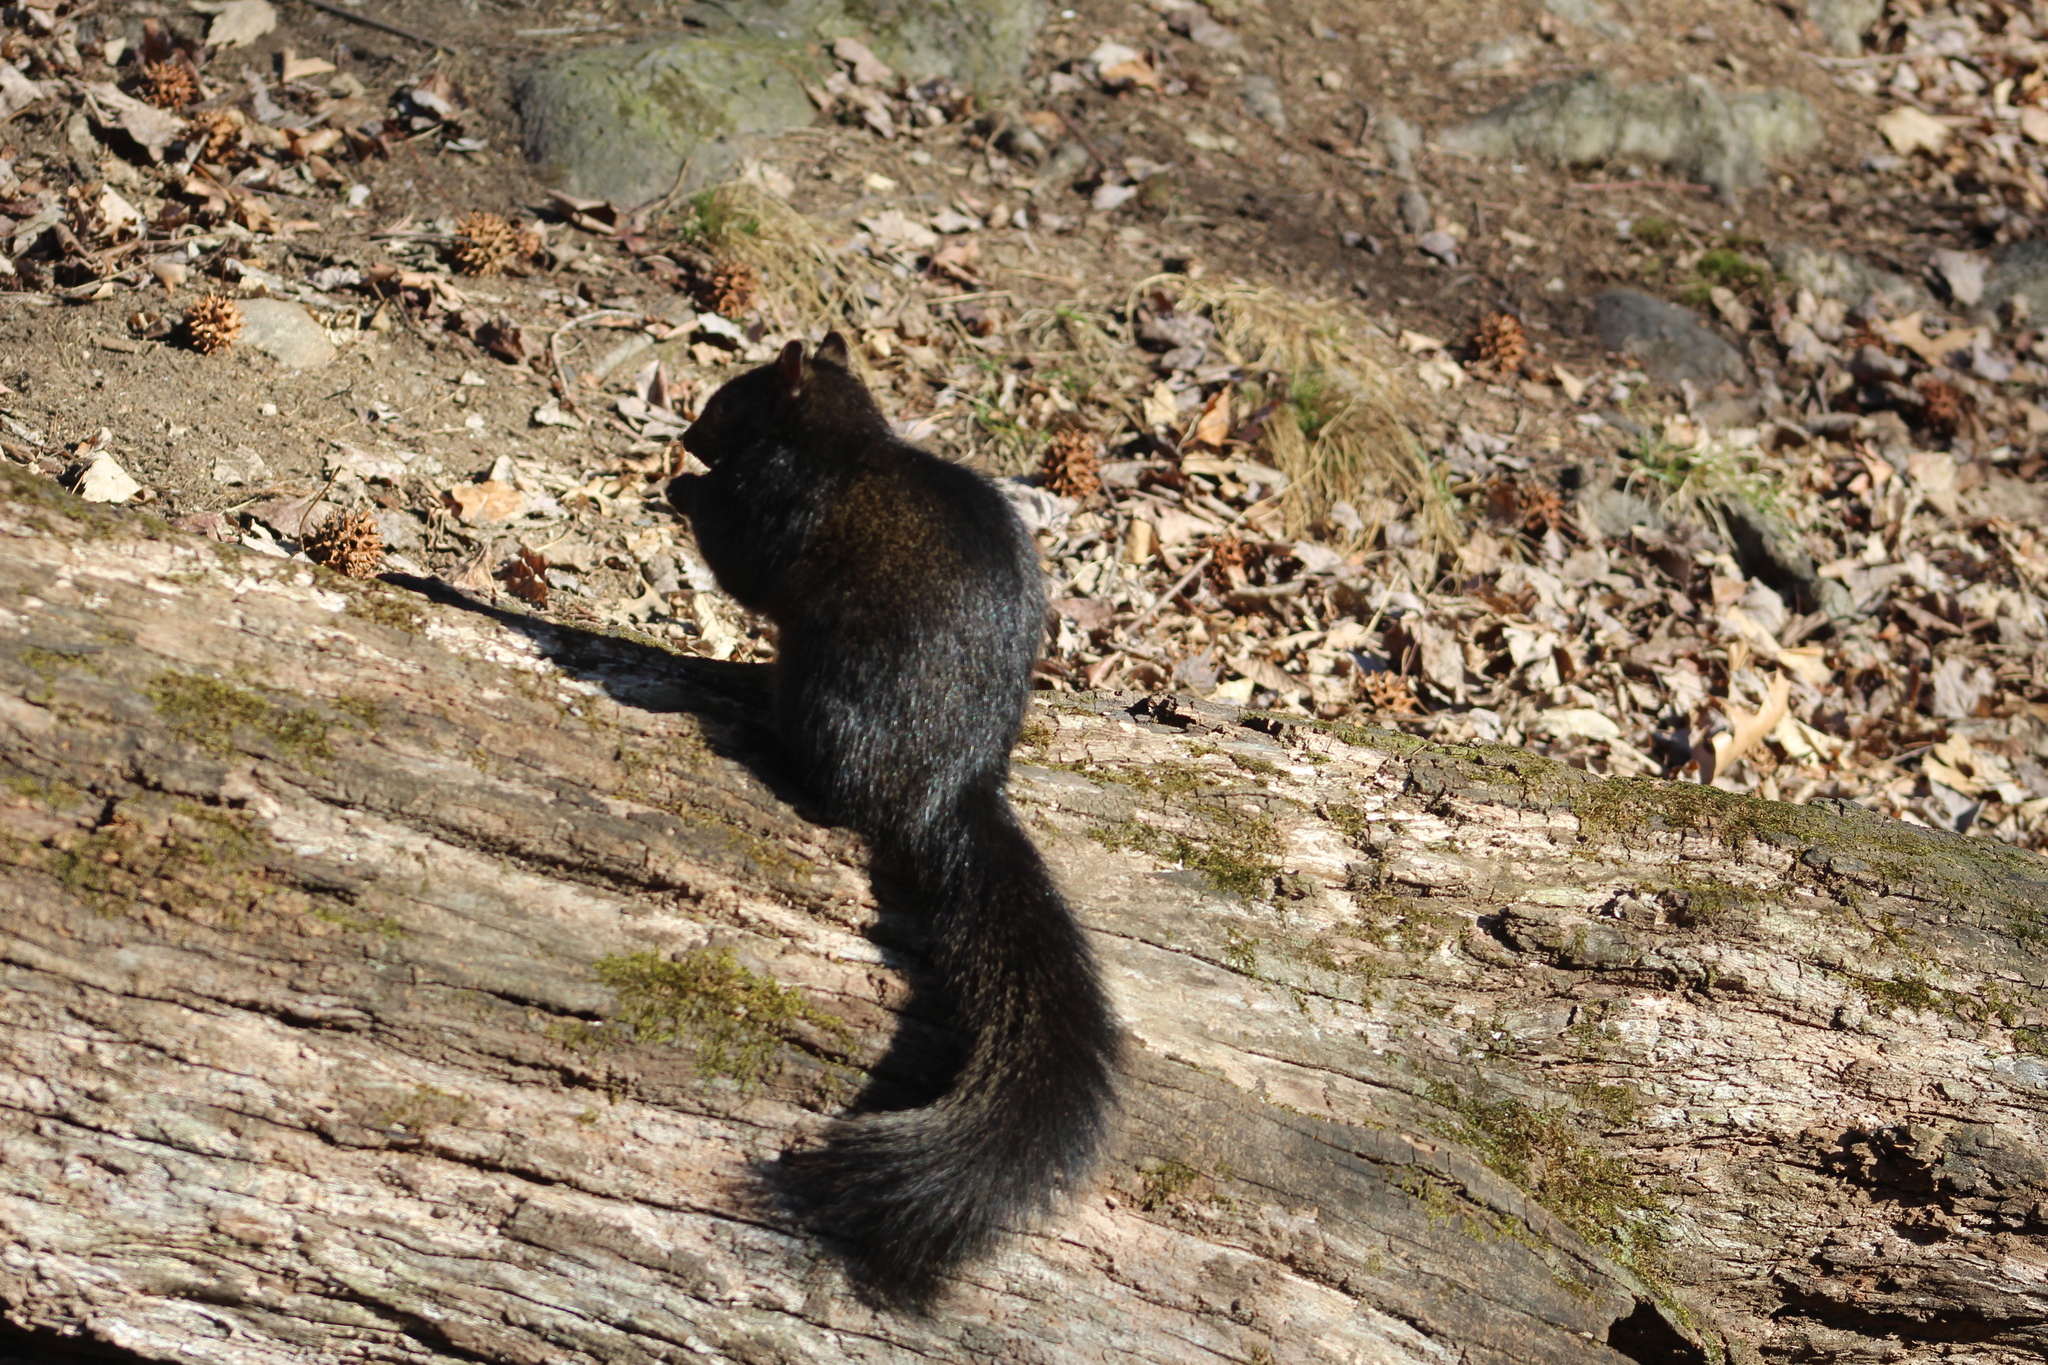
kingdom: Animalia
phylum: Chordata
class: Mammalia
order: Rodentia
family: Sciuridae
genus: Sciurus
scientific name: Sciurus carolinensis
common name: Eastern gray squirrel
